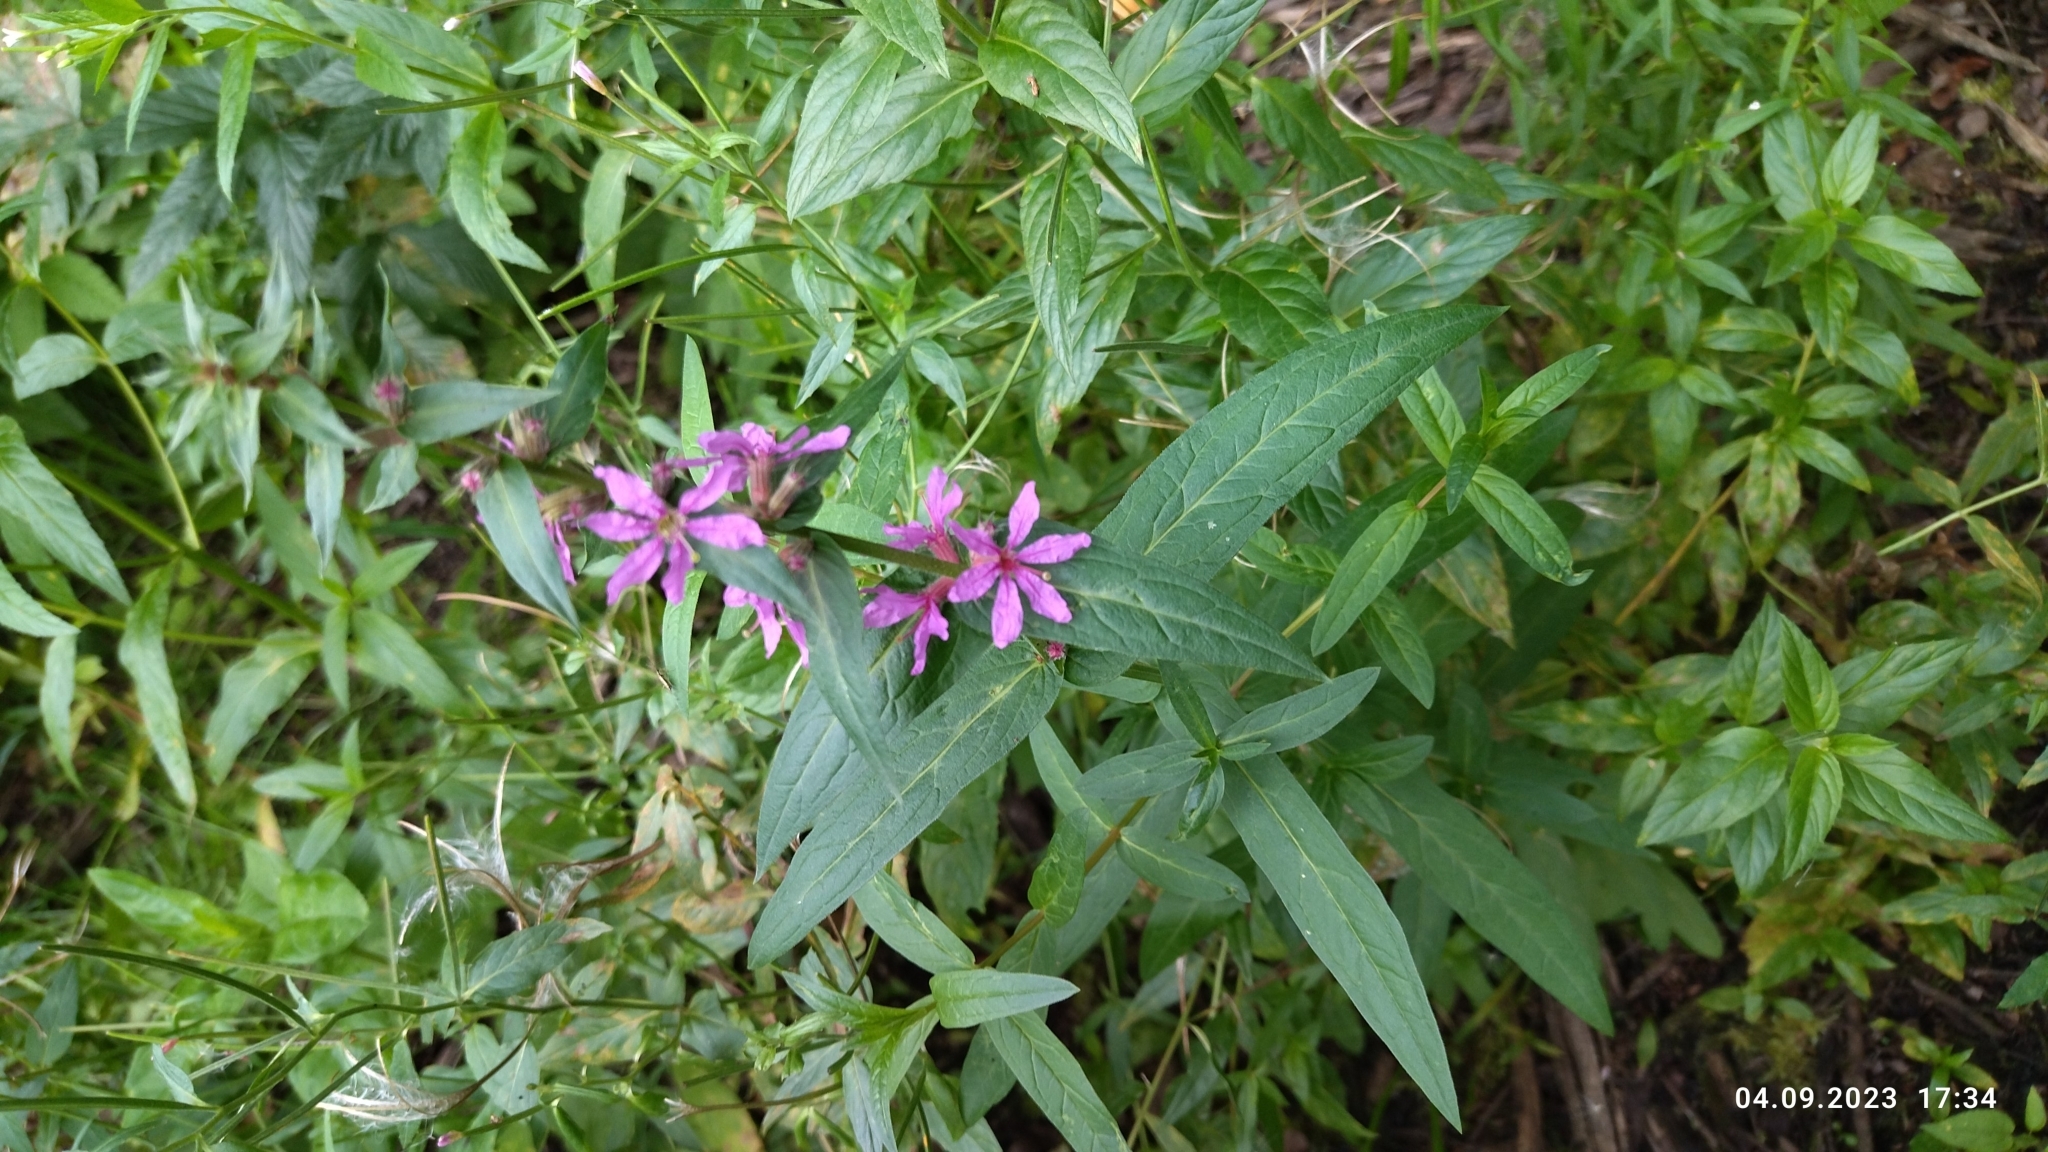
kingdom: Plantae
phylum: Tracheophyta
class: Magnoliopsida
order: Myrtales
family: Lythraceae
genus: Lythrum
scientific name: Lythrum salicaria
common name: Purple loosestrife
